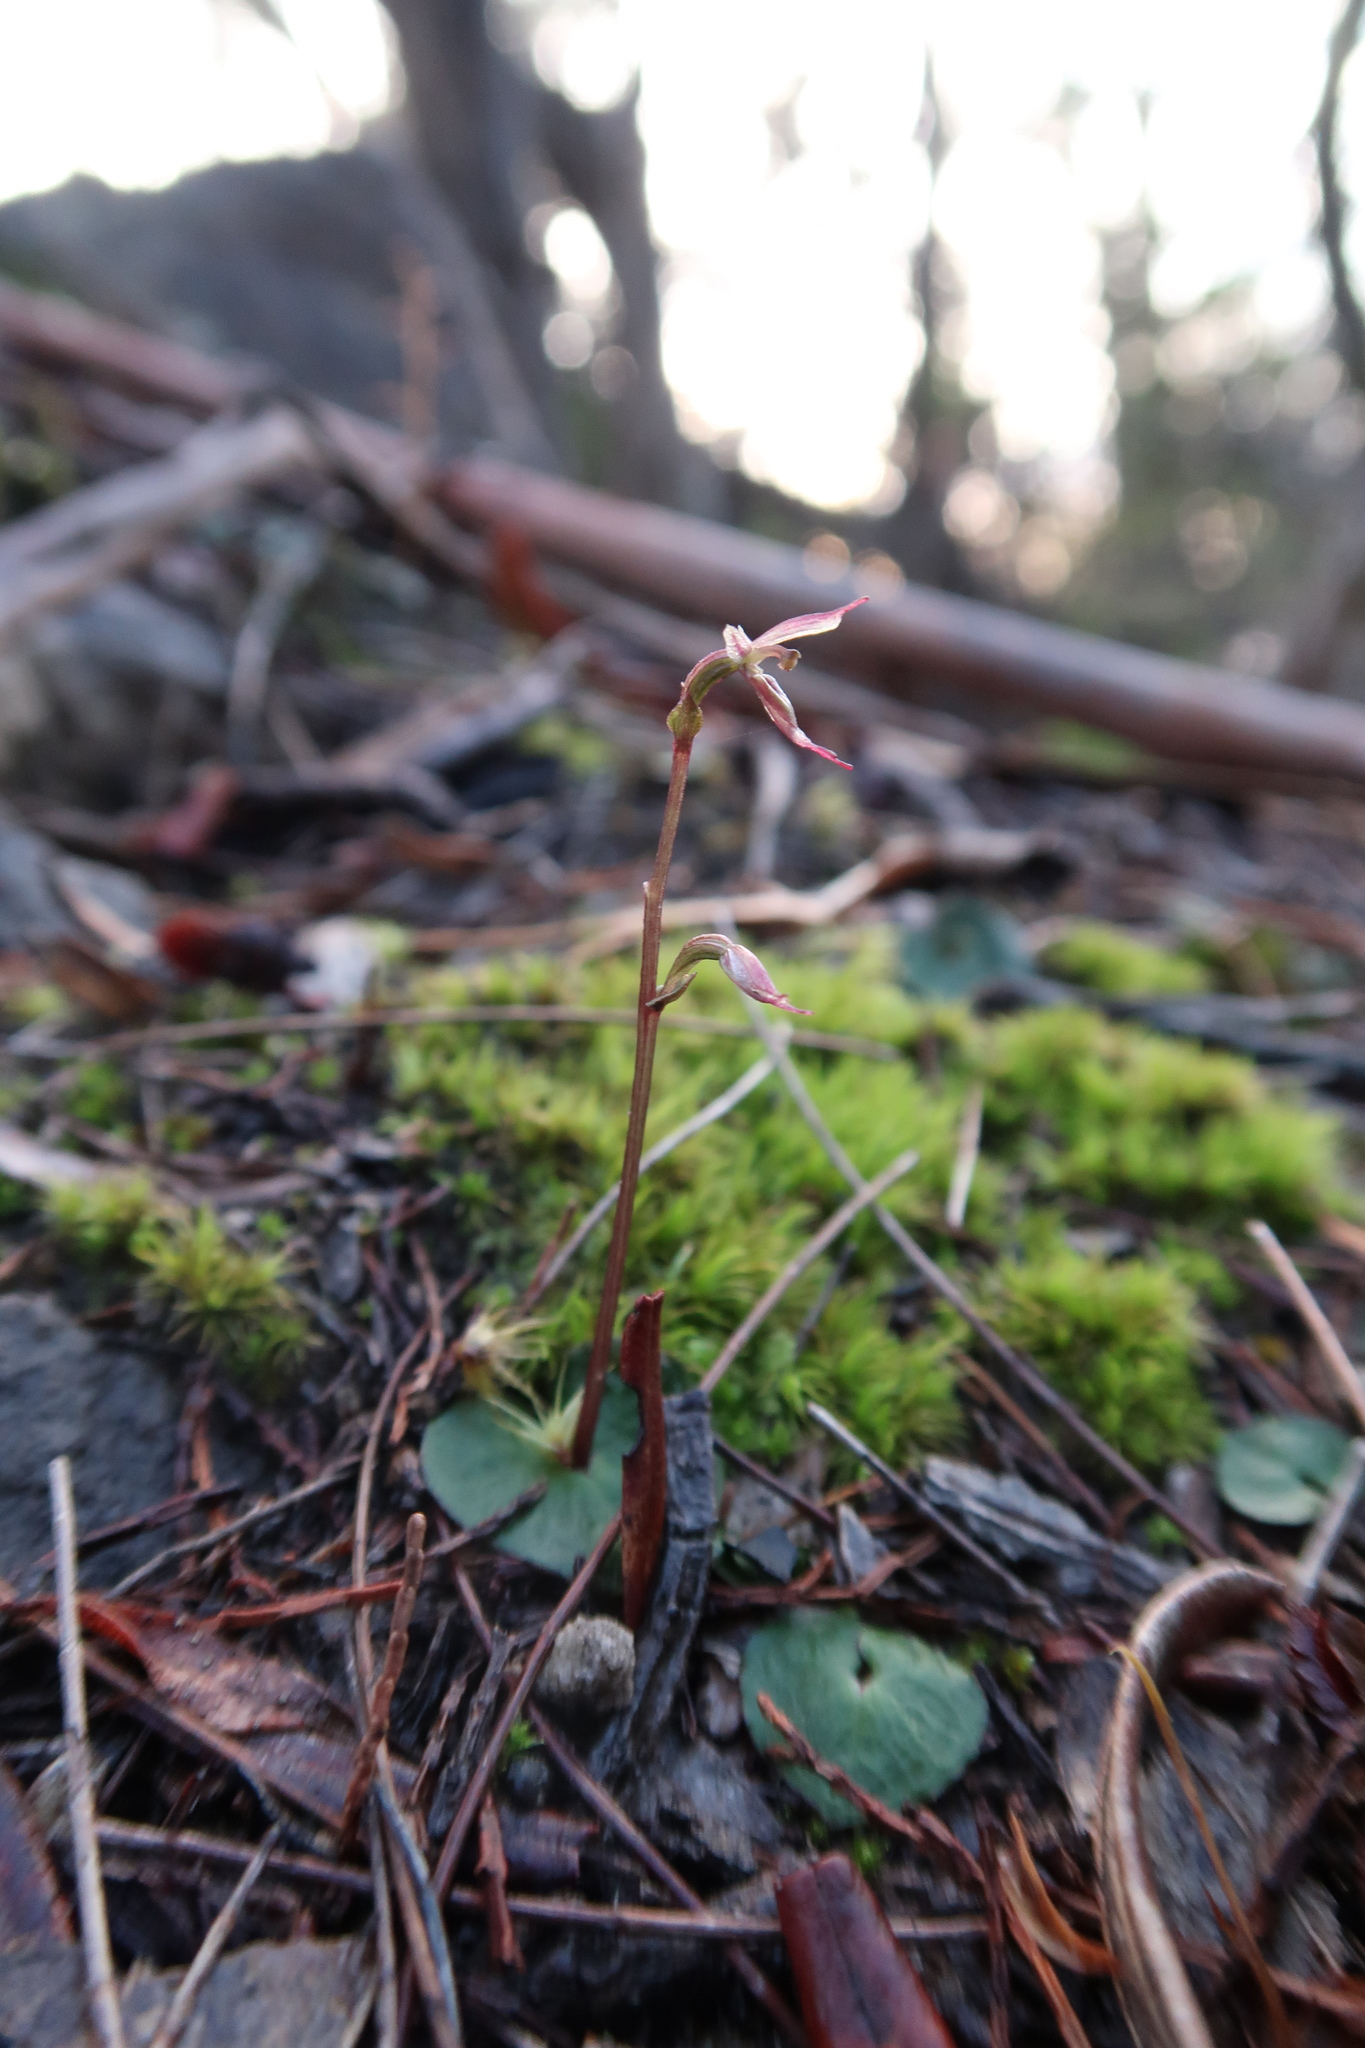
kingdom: Plantae
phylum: Tracheophyta
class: Liliopsida
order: Asparagales
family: Orchidaceae
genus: Acianthus
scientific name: Acianthus pusillus
